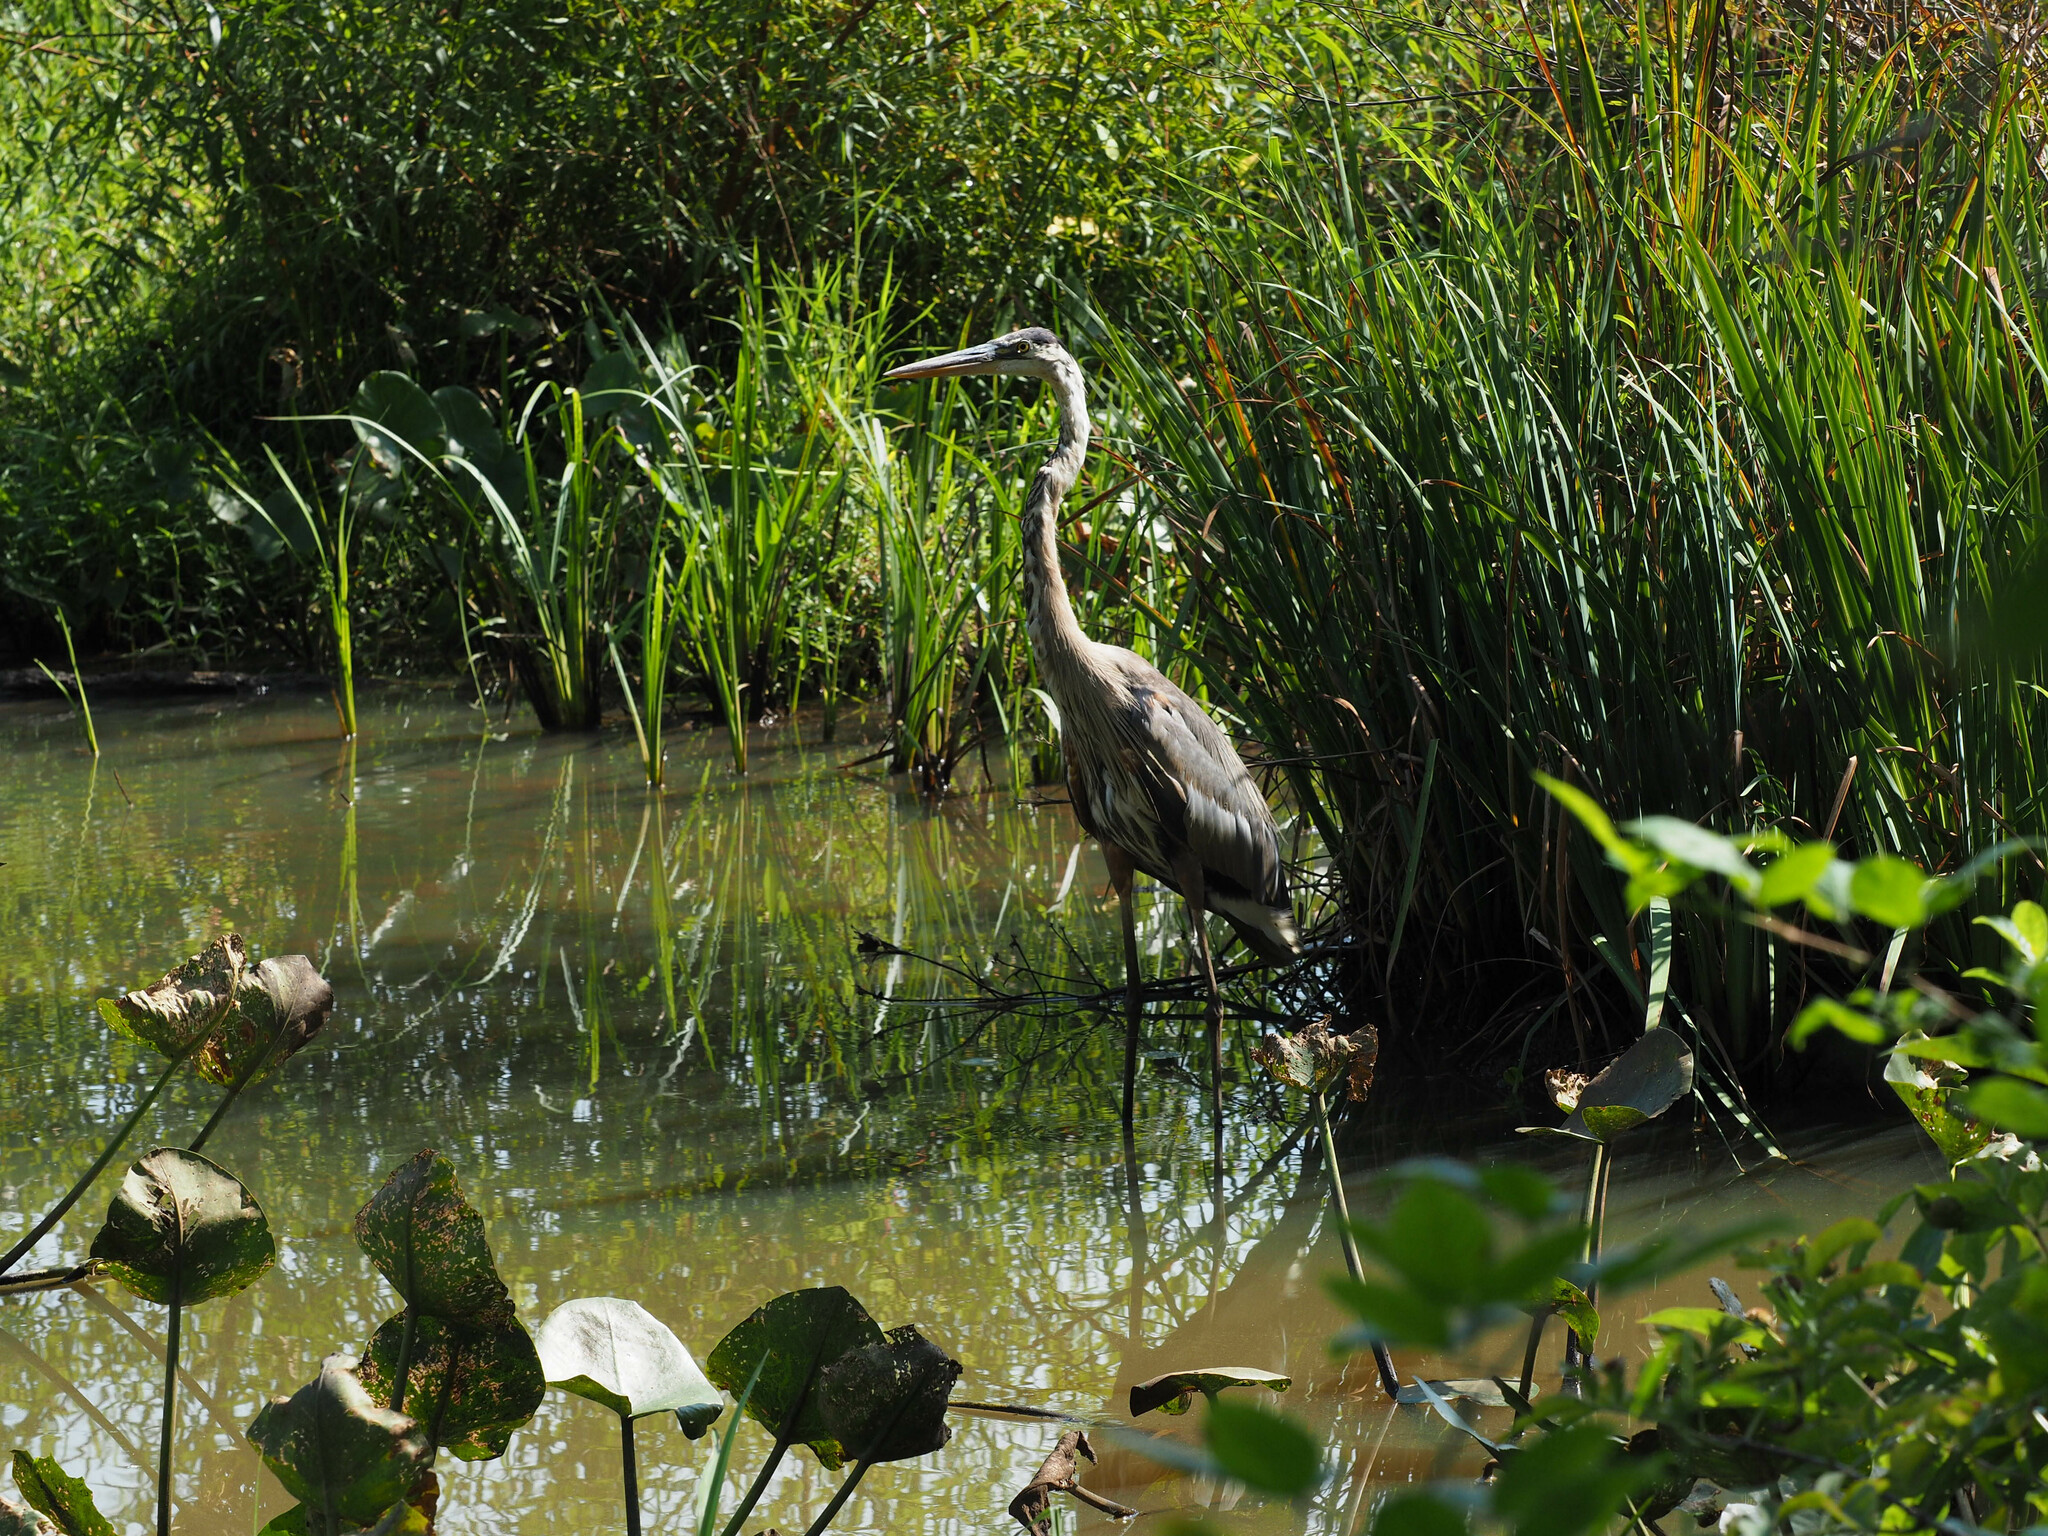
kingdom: Animalia
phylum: Chordata
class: Aves
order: Pelecaniformes
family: Ardeidae
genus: Ardea
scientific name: Ardea herodias
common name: Great blue heron
